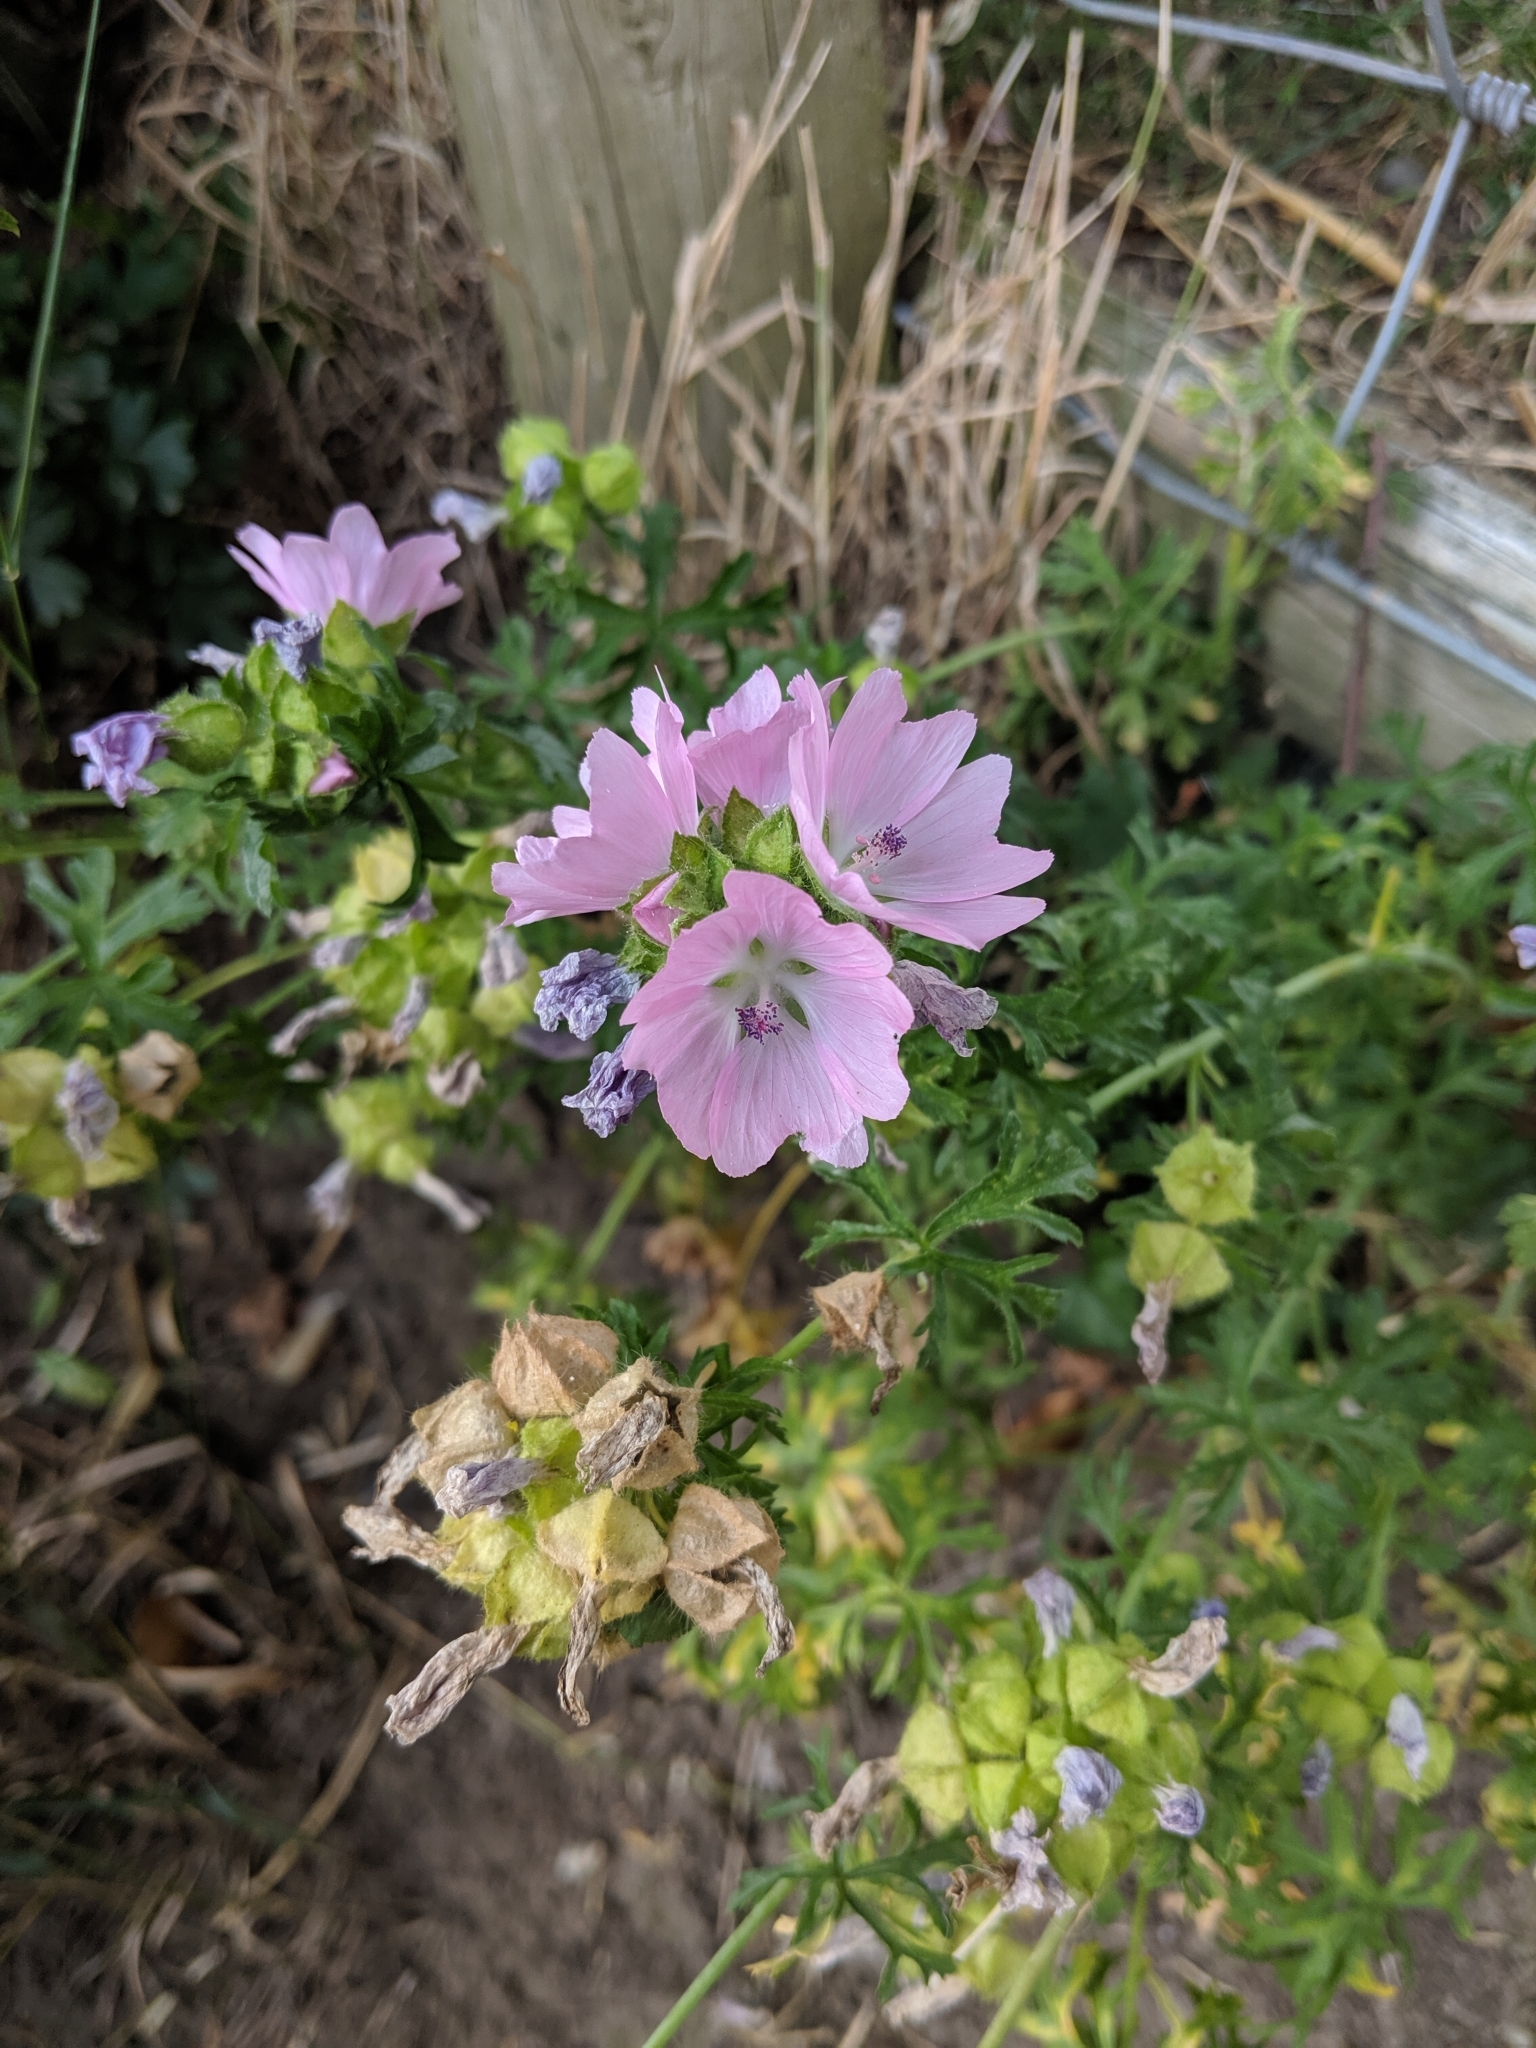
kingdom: Plantae
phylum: Tracheophyta
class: Magnoliopsida
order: Malvales
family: Malvaceae
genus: Malva
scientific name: Malva moschata
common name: Musk mallow
